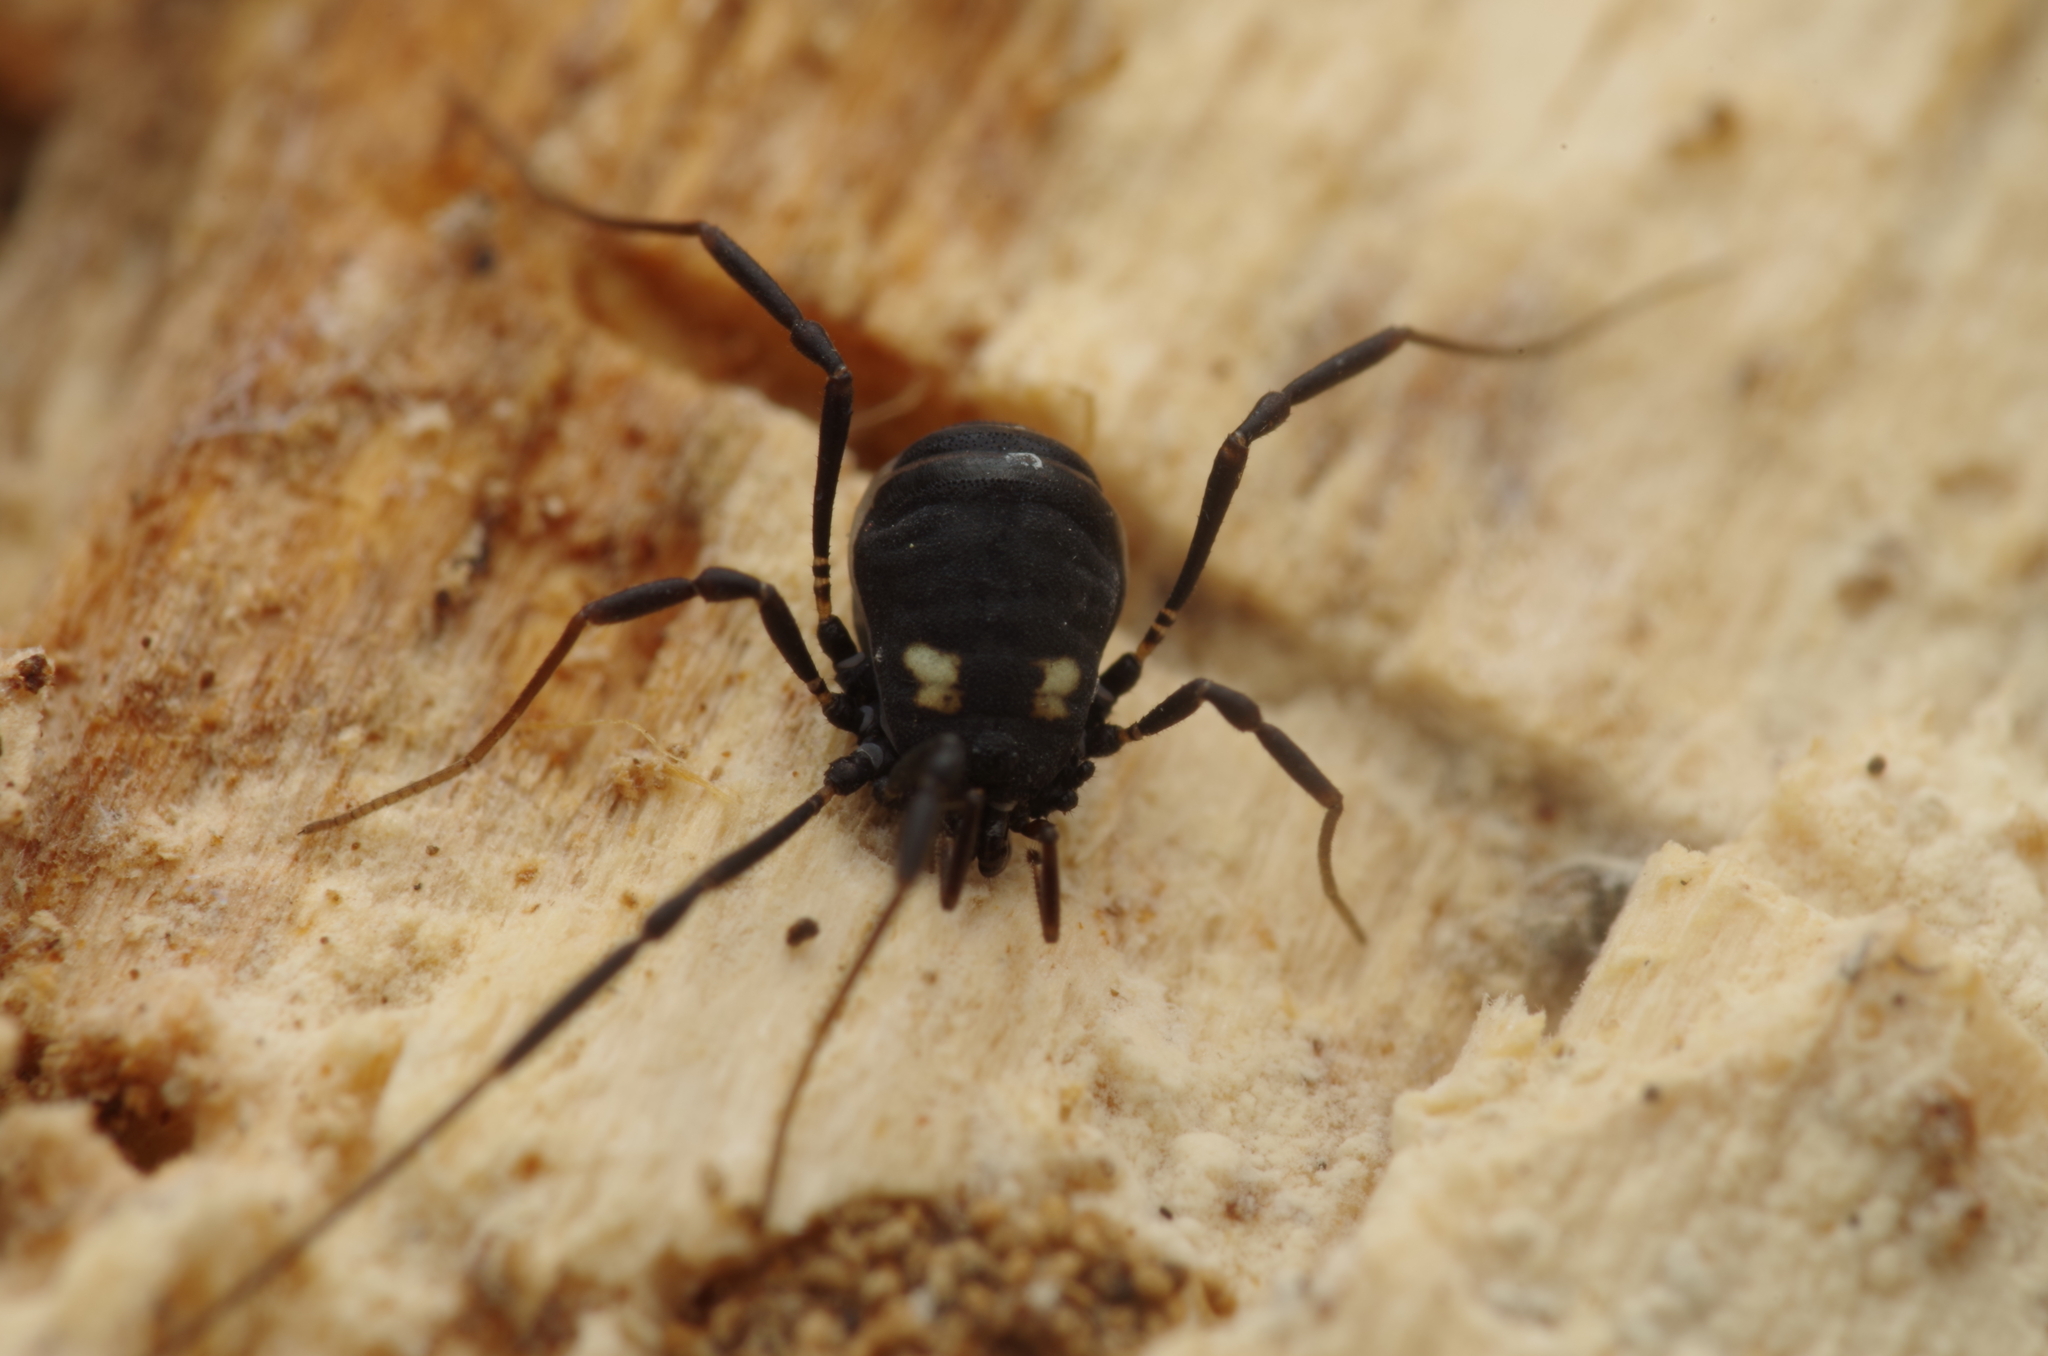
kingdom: Animalia
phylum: Arthropoda
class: Arachnida
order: Opiliones
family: Nemastomatidae
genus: Nemastoma
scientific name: Nemastoma bimaculatum
